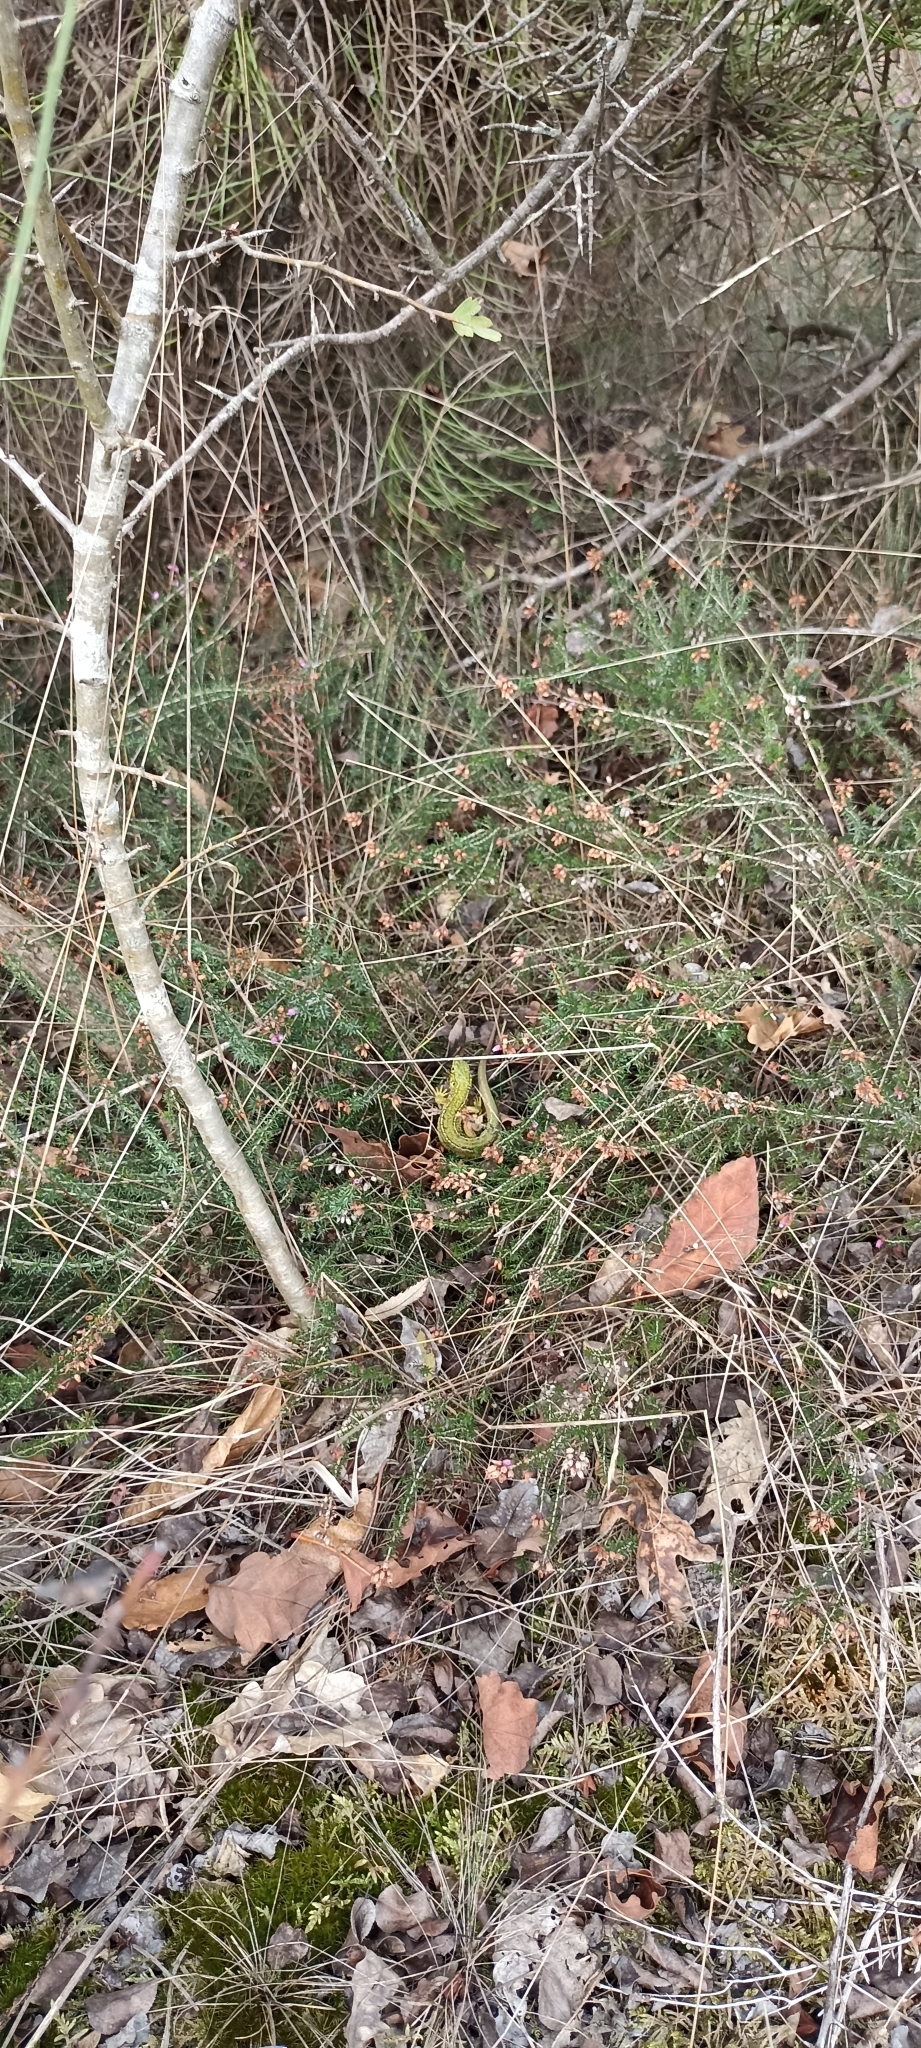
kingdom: Animalia
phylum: Chordata
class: Squamata
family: Lacertidae
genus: Lacerta
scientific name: Lacerta bilineata
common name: Western green lizard
